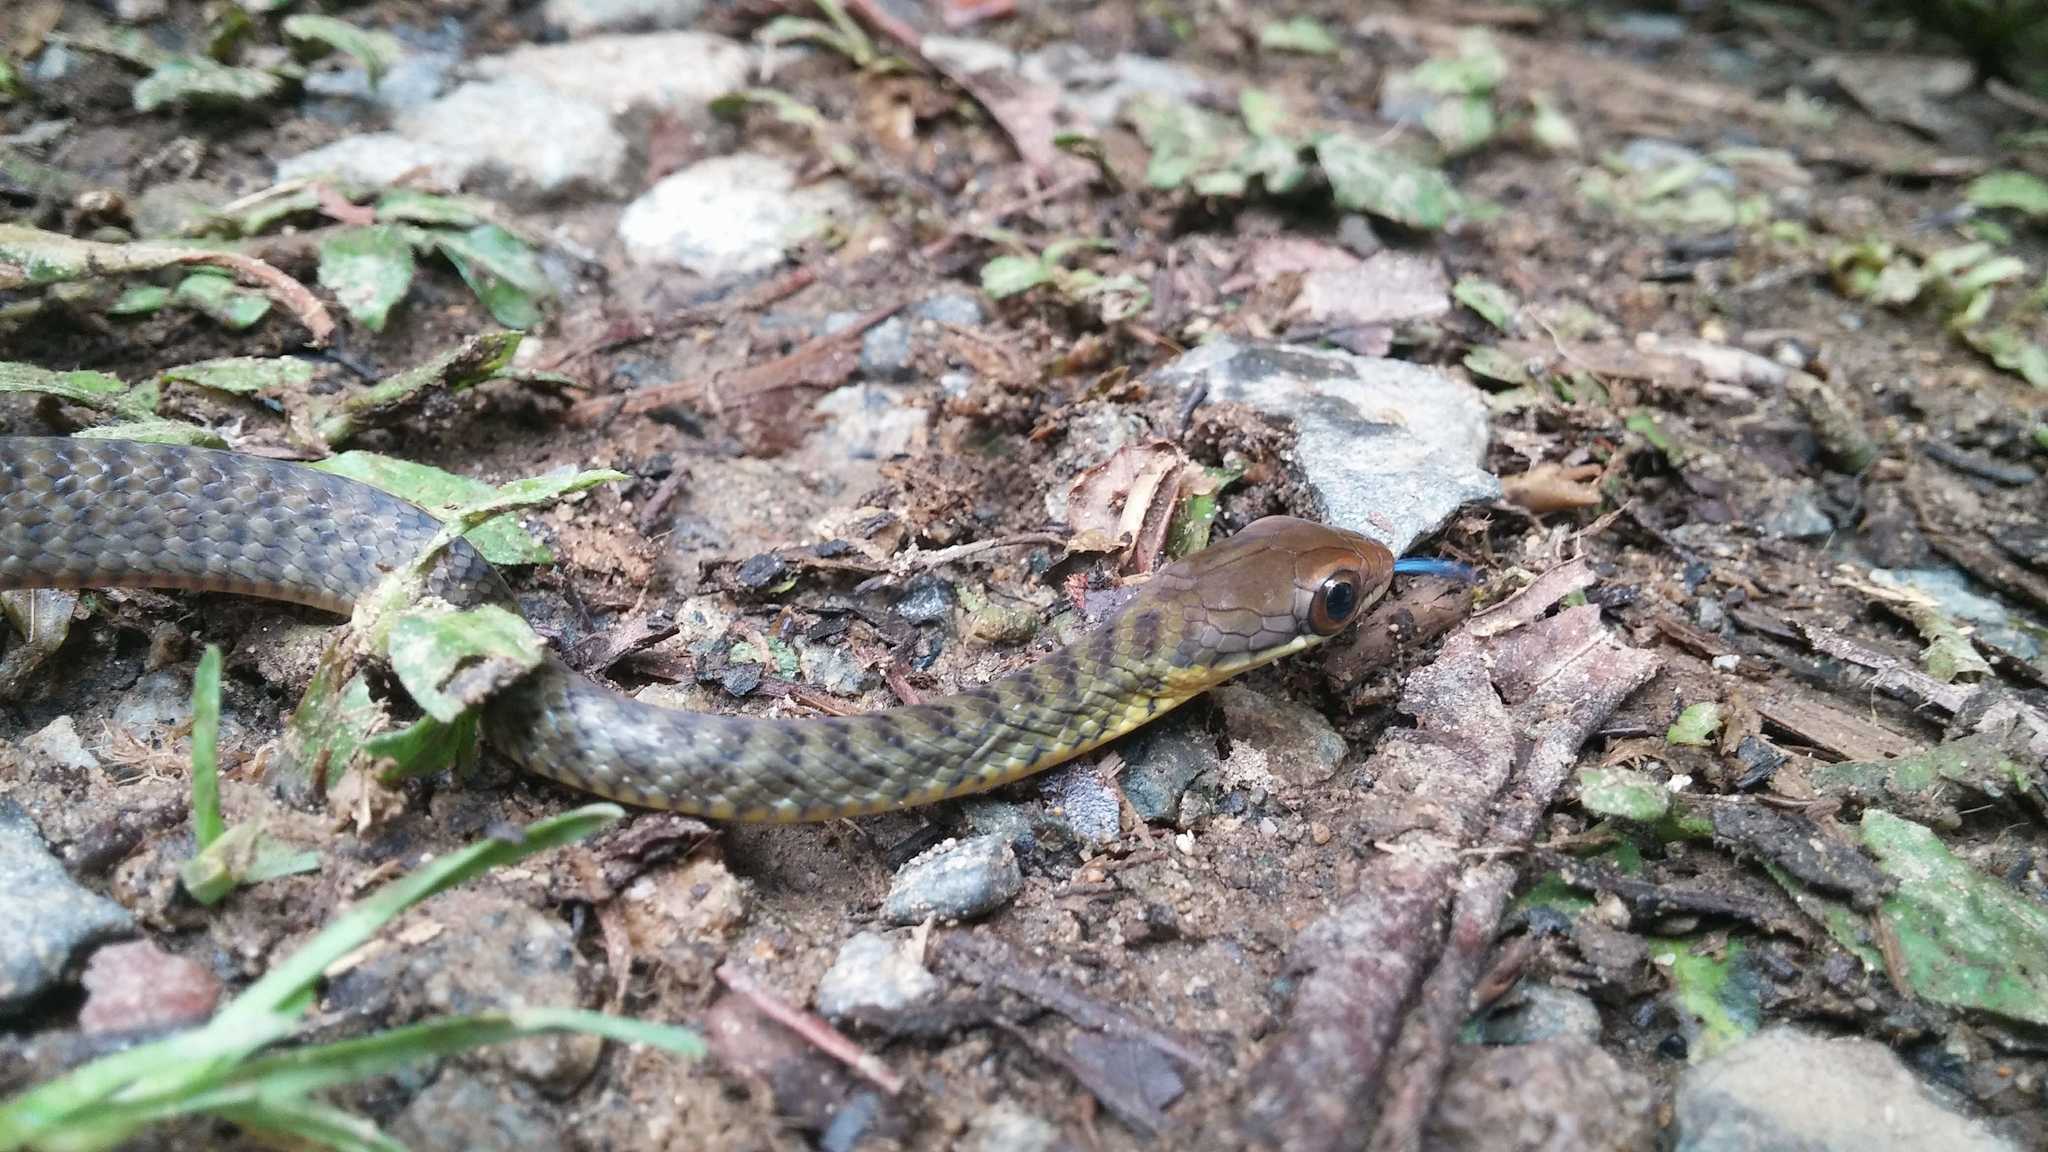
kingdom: Animalia
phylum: Chordata
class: Squamata
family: Colubridae
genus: Dendrophidion
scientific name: Dendrophidion paucicarinatum
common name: Cope's forest racer
